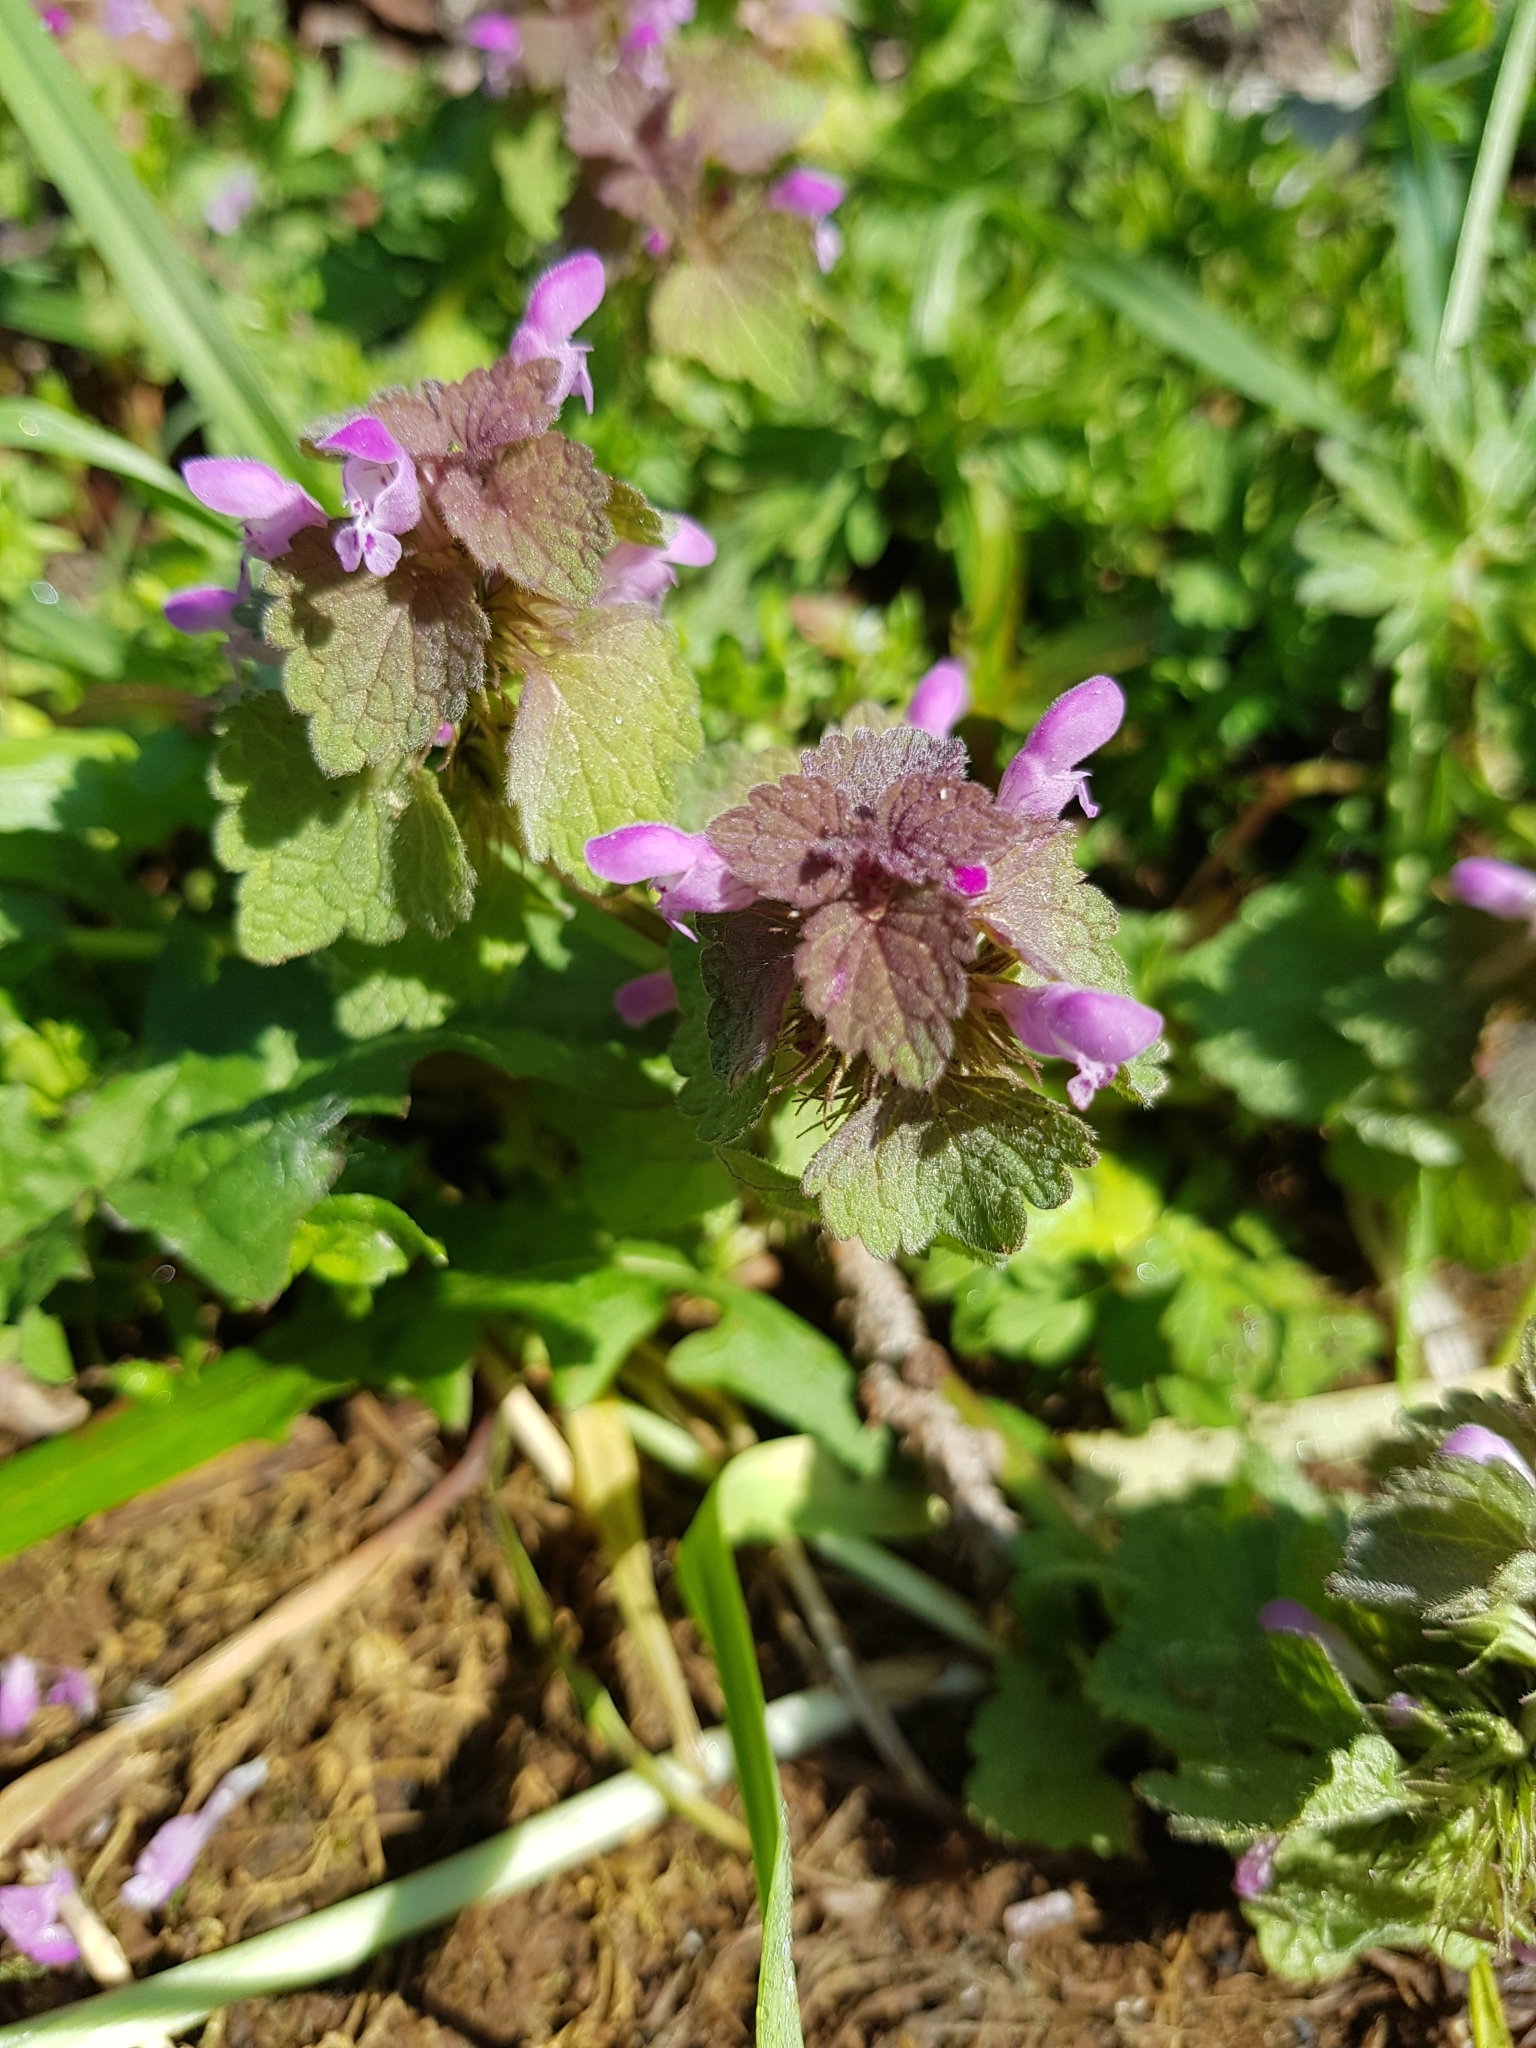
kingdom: Plantae
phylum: Tracheophyta
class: Magnoliopsida
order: Lamiales
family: Lamiaceae
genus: Lamium
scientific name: Lamium purpureum
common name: Red dead-nettle
